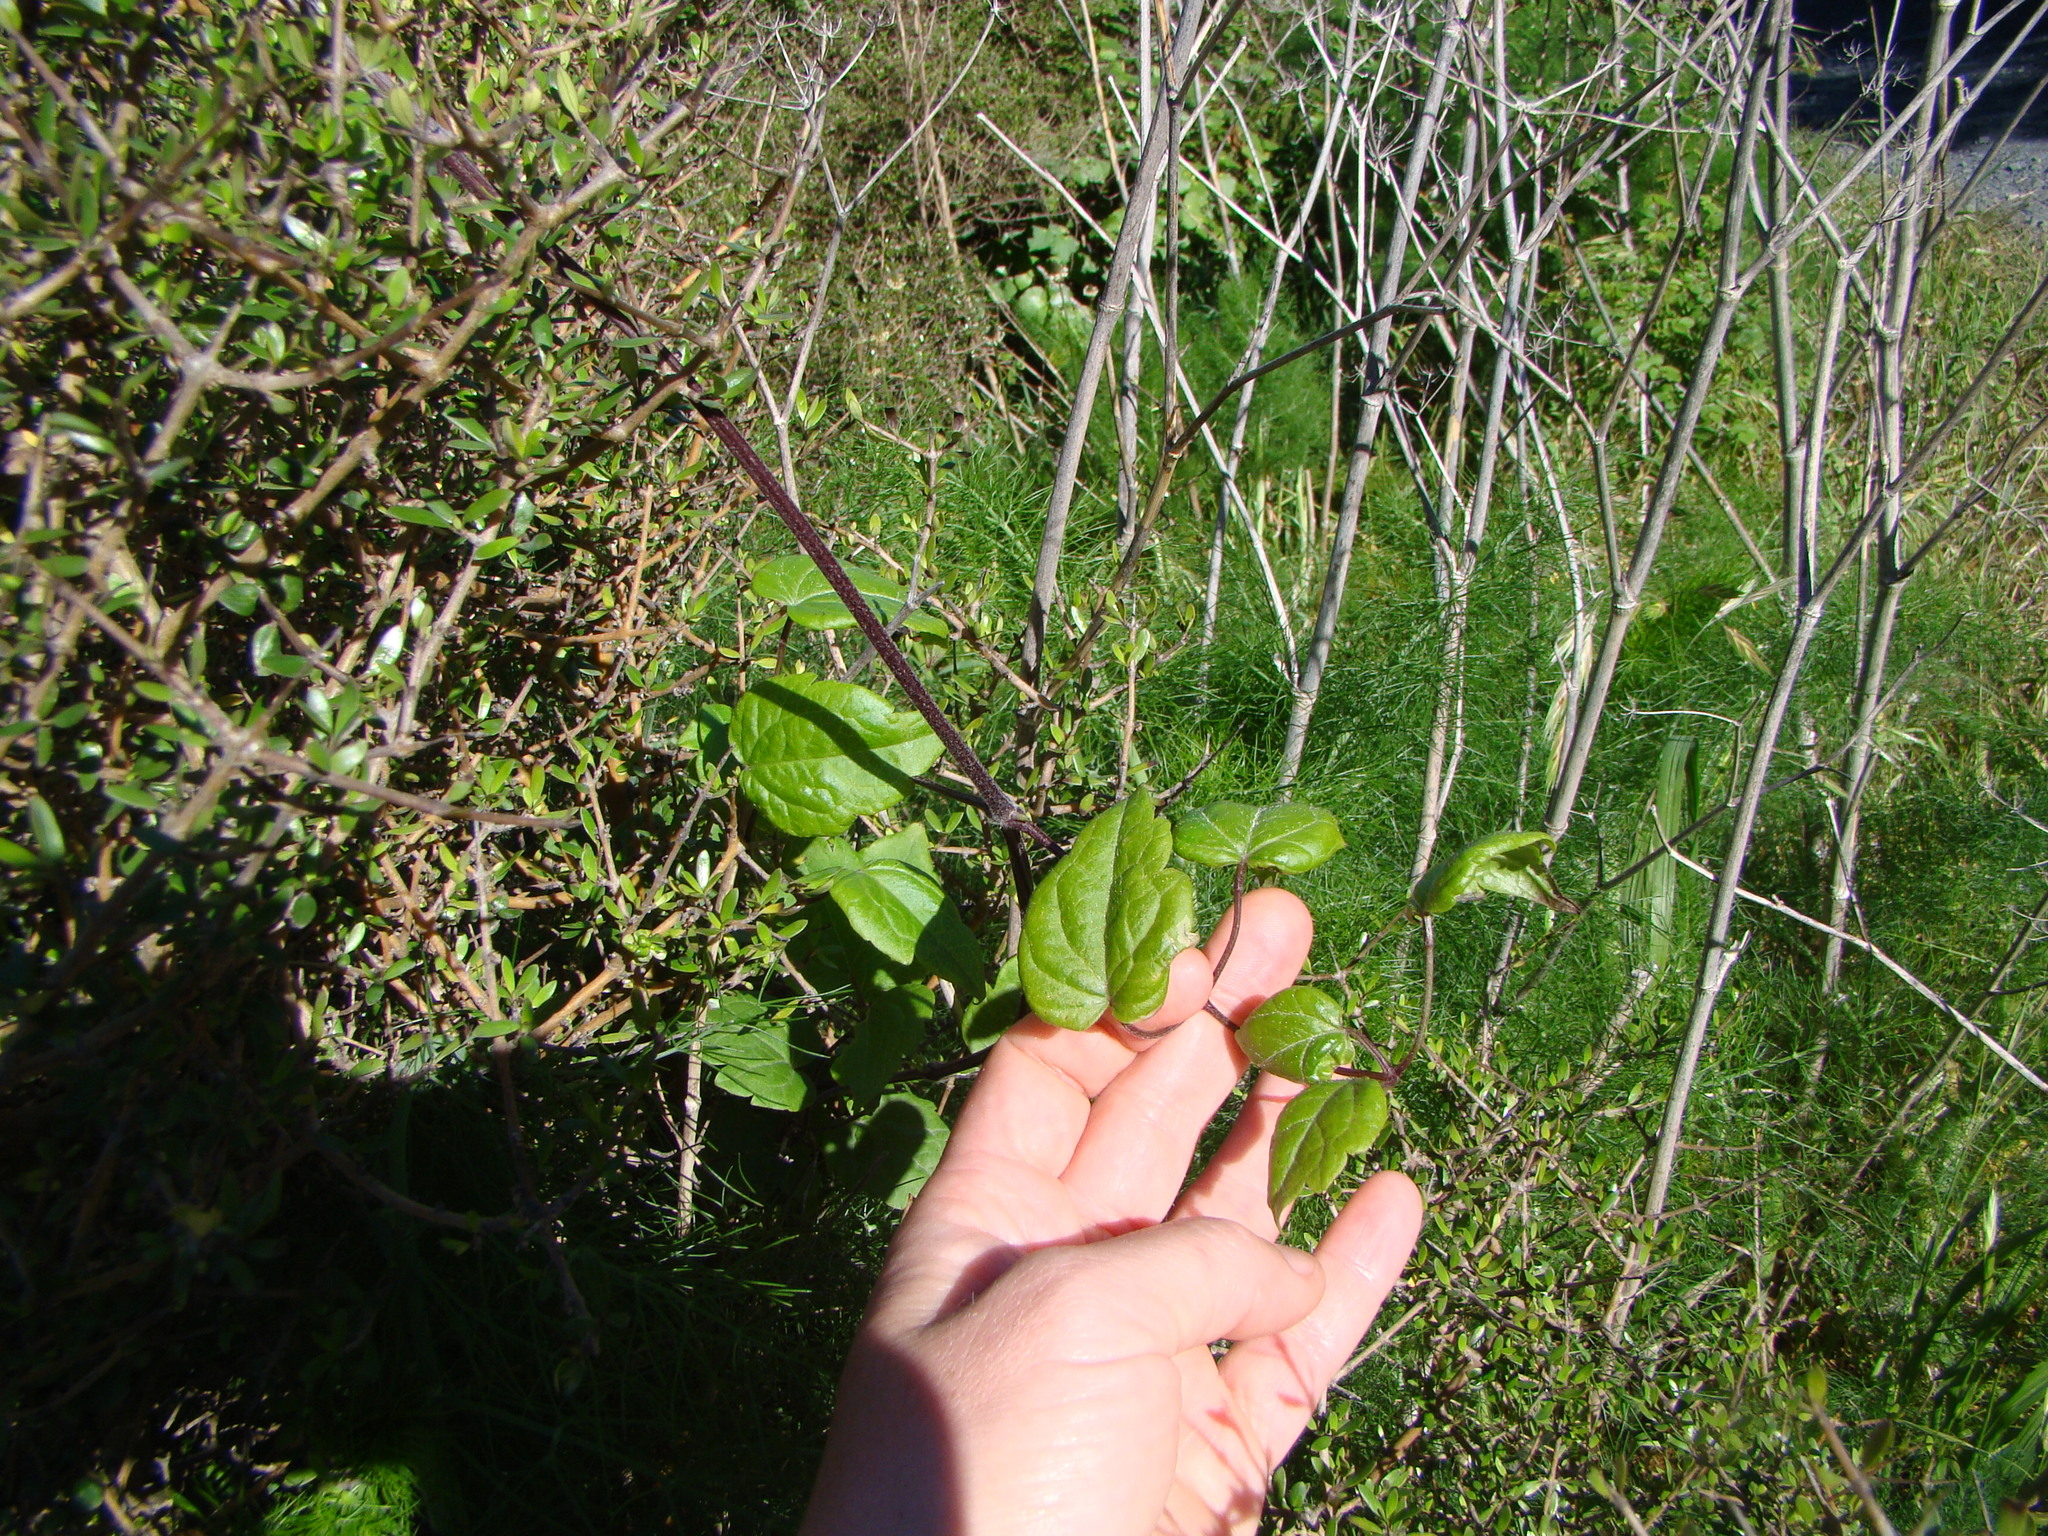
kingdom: Plantae
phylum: Tracheophyta
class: Magnoliopsida
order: Ranunculales
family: Ranunculaceae
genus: Clematis
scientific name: Clematis vitalba
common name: Evergreen clematis
